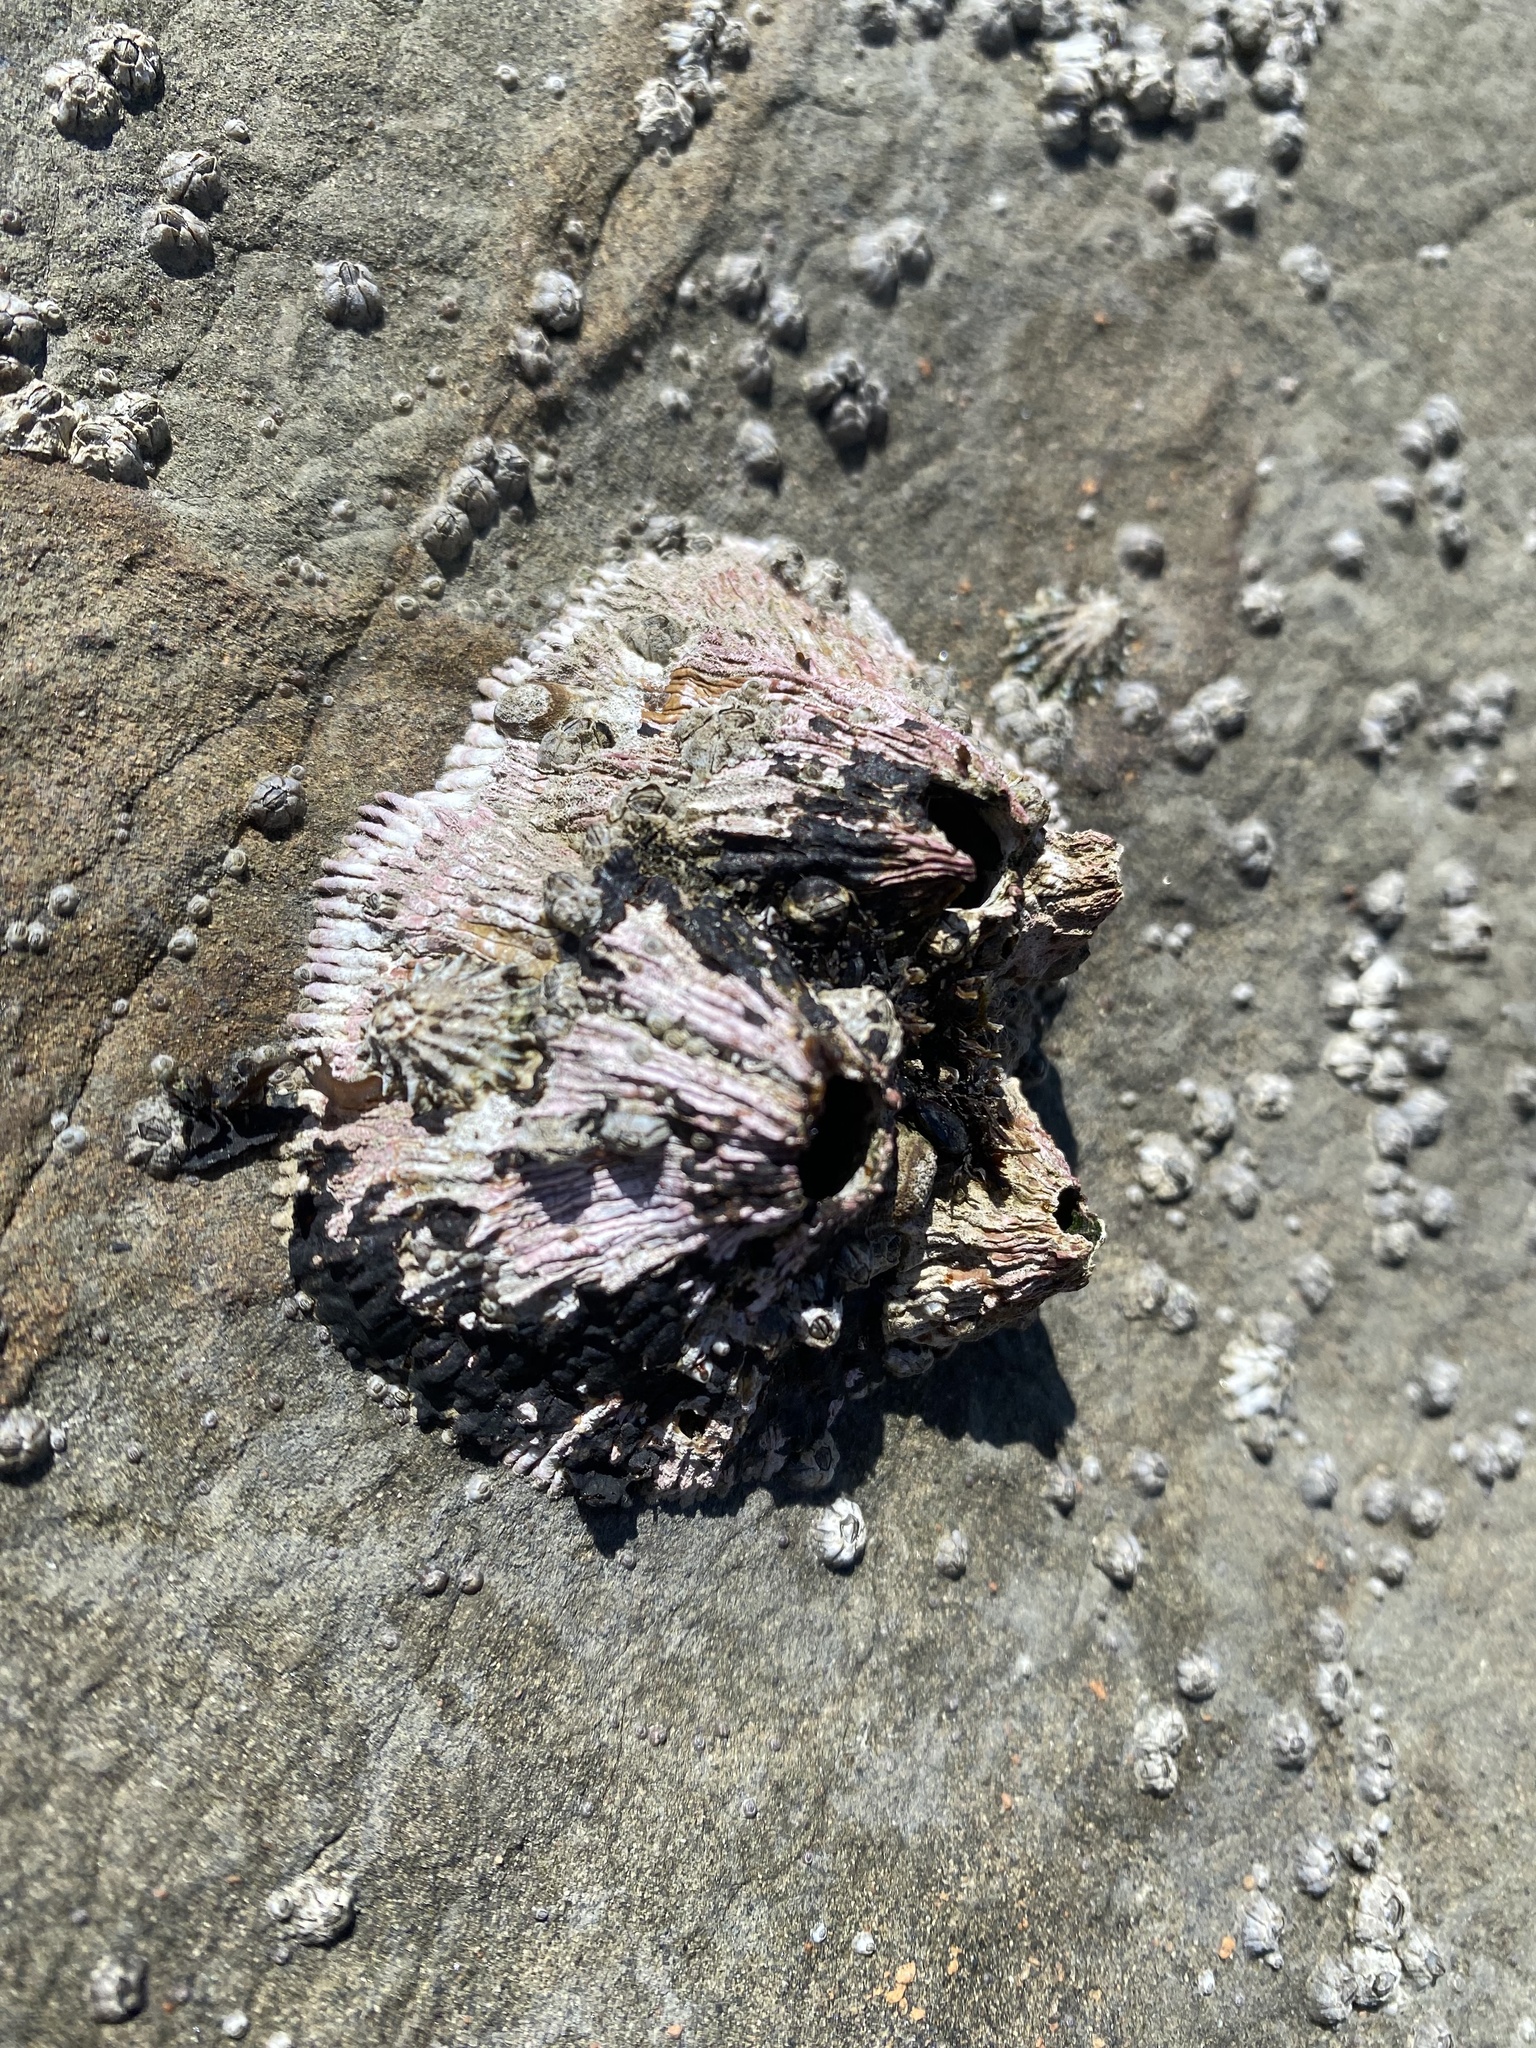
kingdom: Animalia
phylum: Arthropoda
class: Maxillopoda
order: Sessilia
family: Tetraclitidae
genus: Tetraclita
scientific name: Tetraclita rubescens
